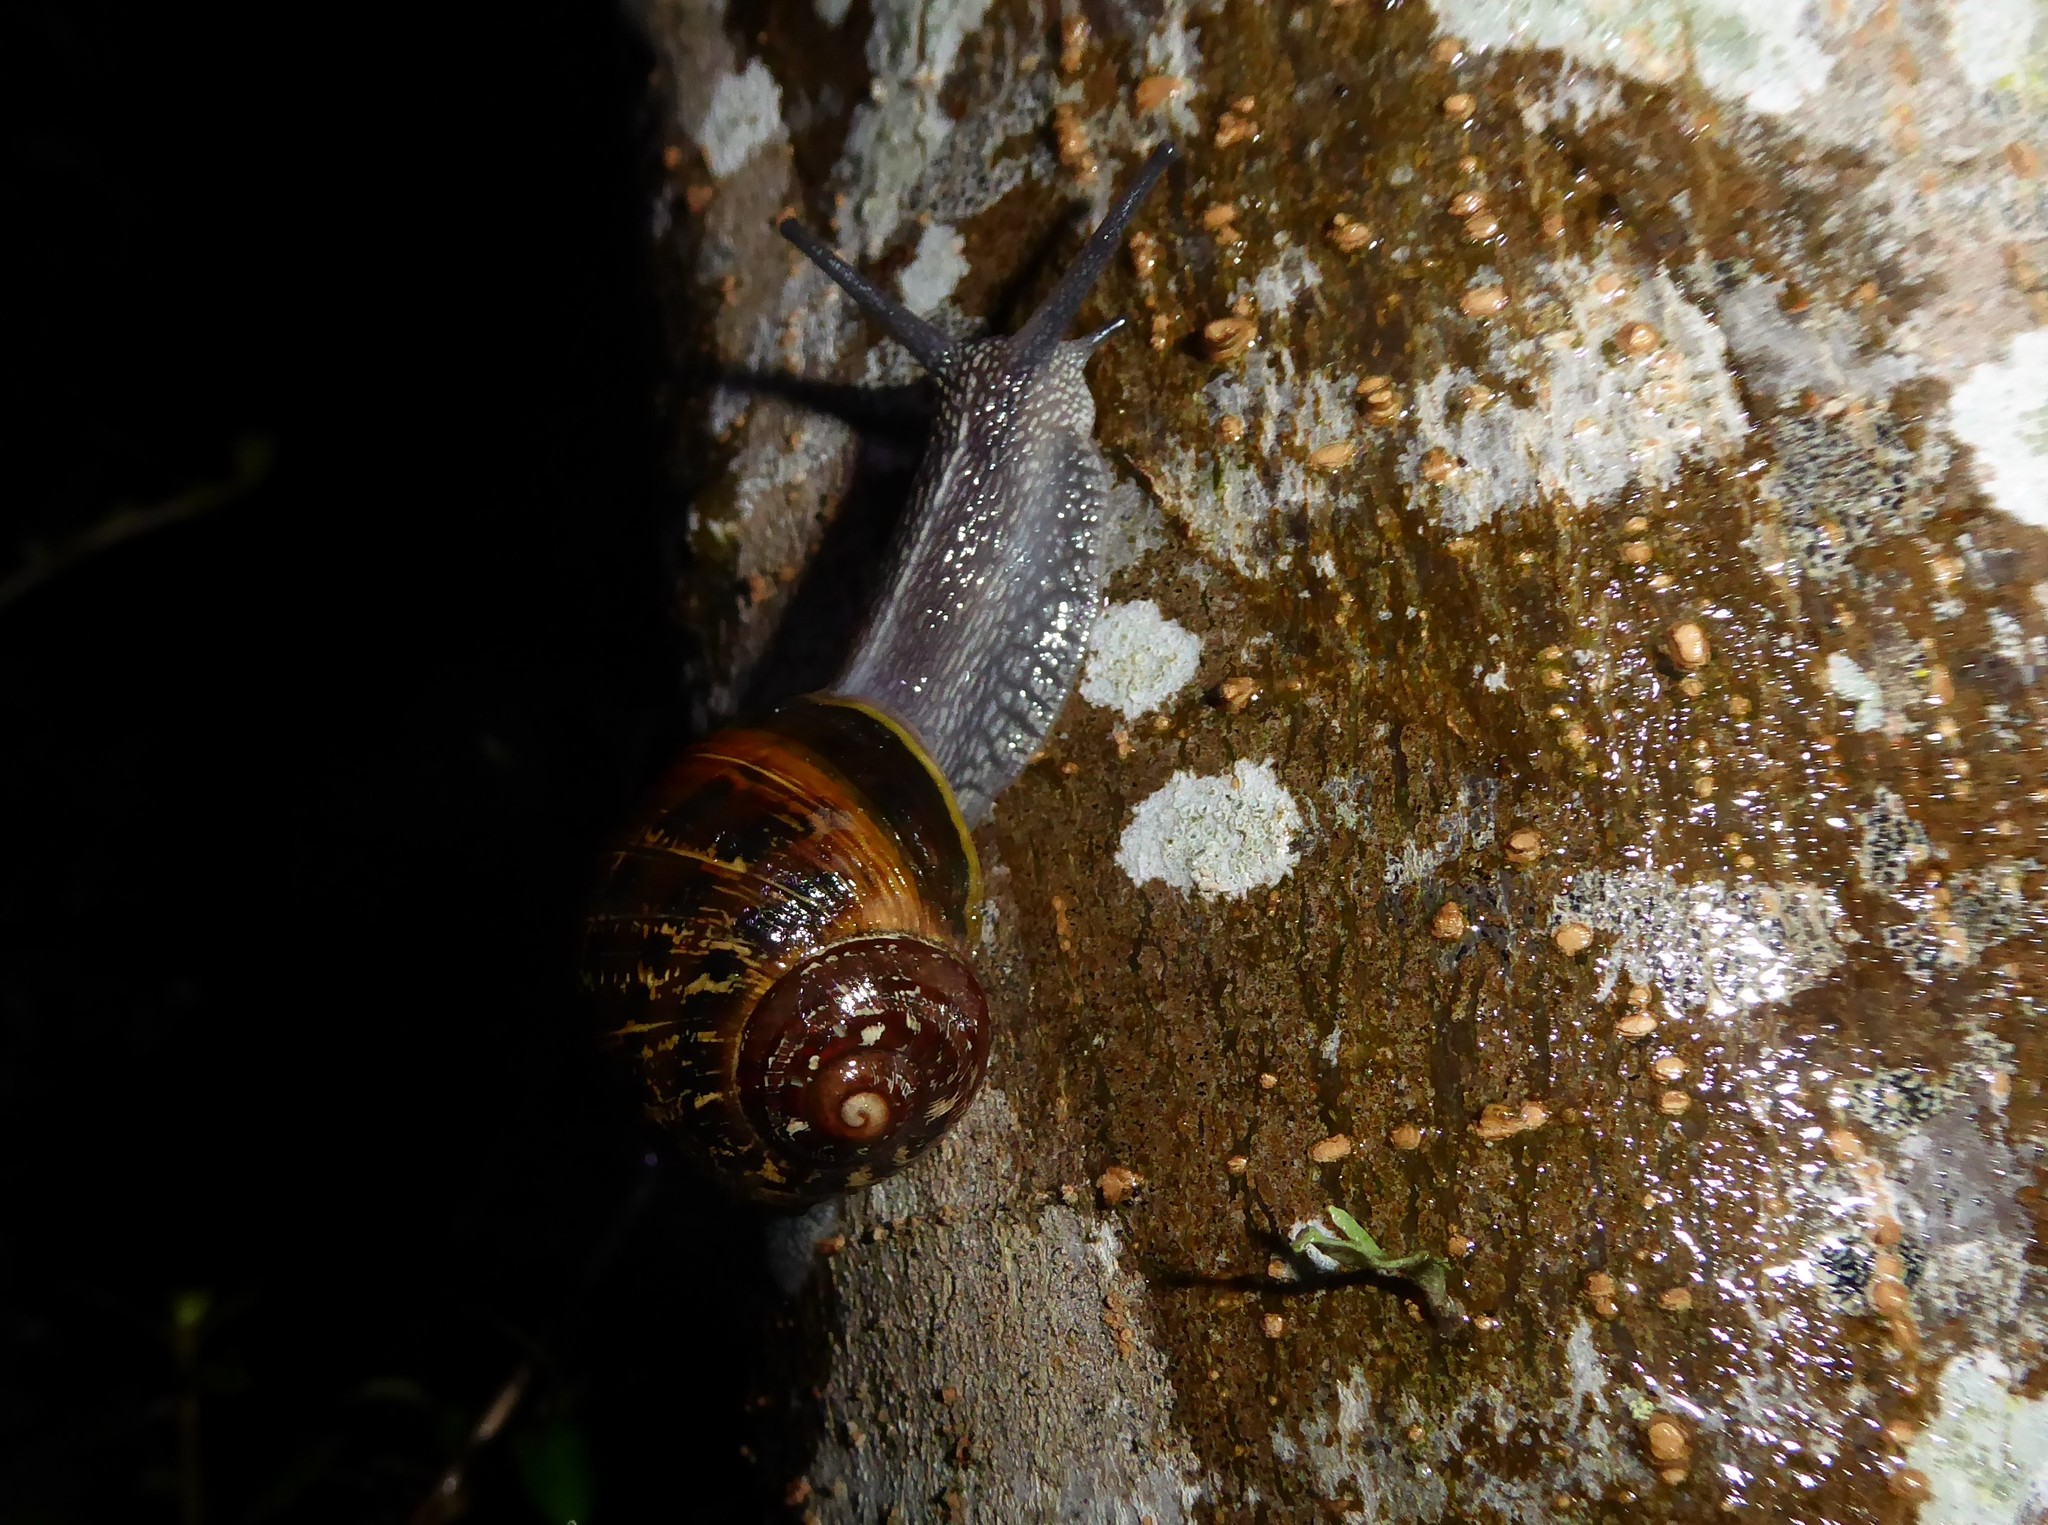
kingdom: Animalia
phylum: Mollusca
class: Gastropoda
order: Stylommatophora
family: Helicidae
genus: Cornu
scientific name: Cornu aspersum
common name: Brown garden snail
